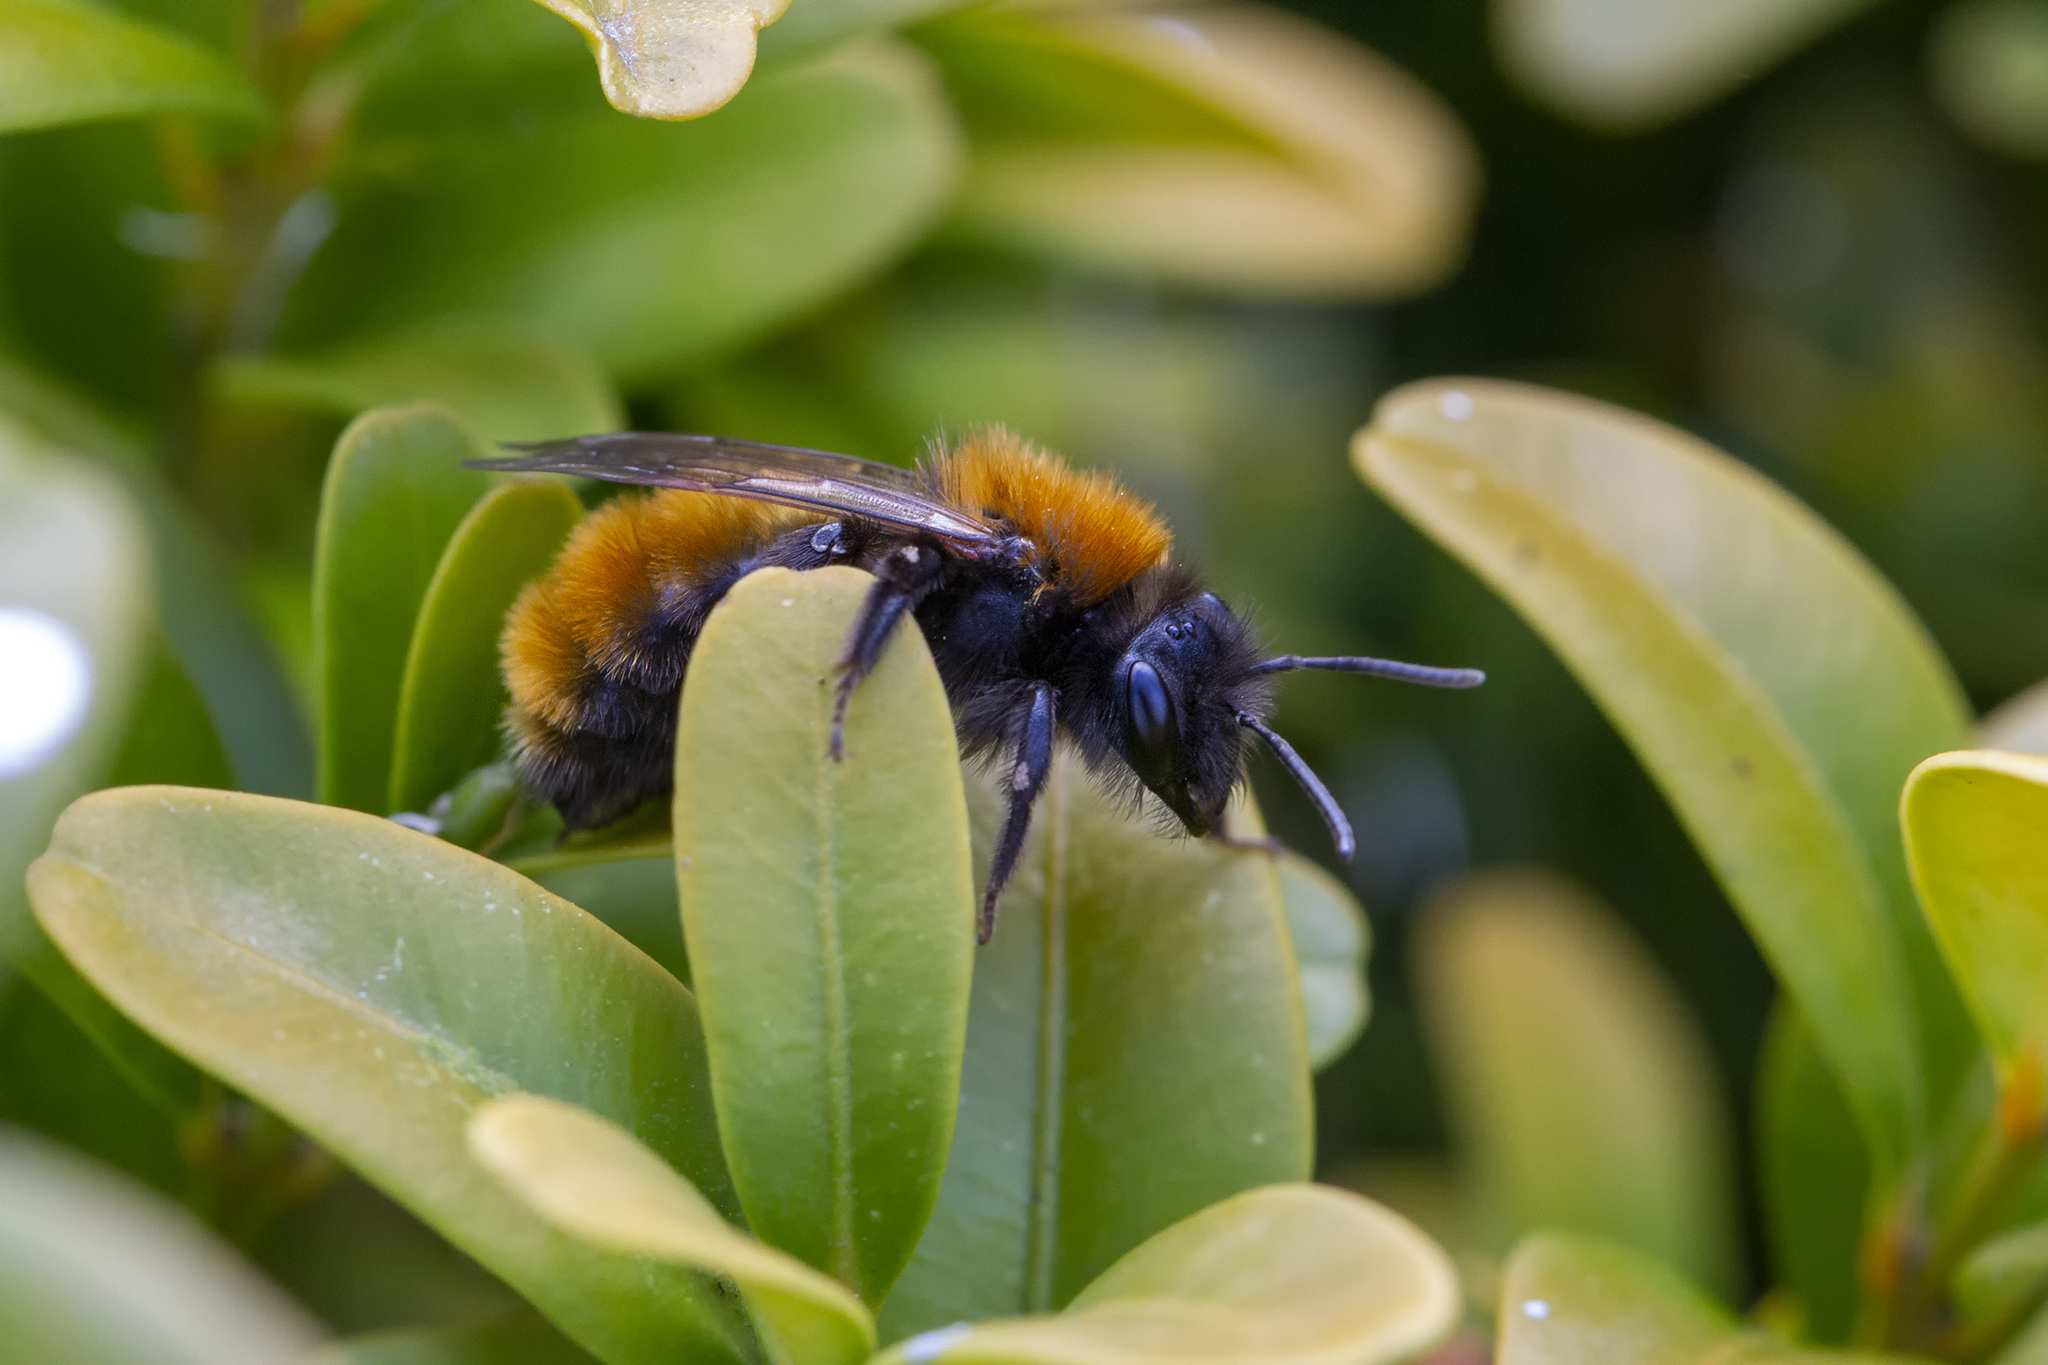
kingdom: Animalia
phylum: Arthropoda
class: Insecta
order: Hymenoptera
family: Andrenidae
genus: Andrena
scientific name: Andrena fulva
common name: Tawny mining bee
